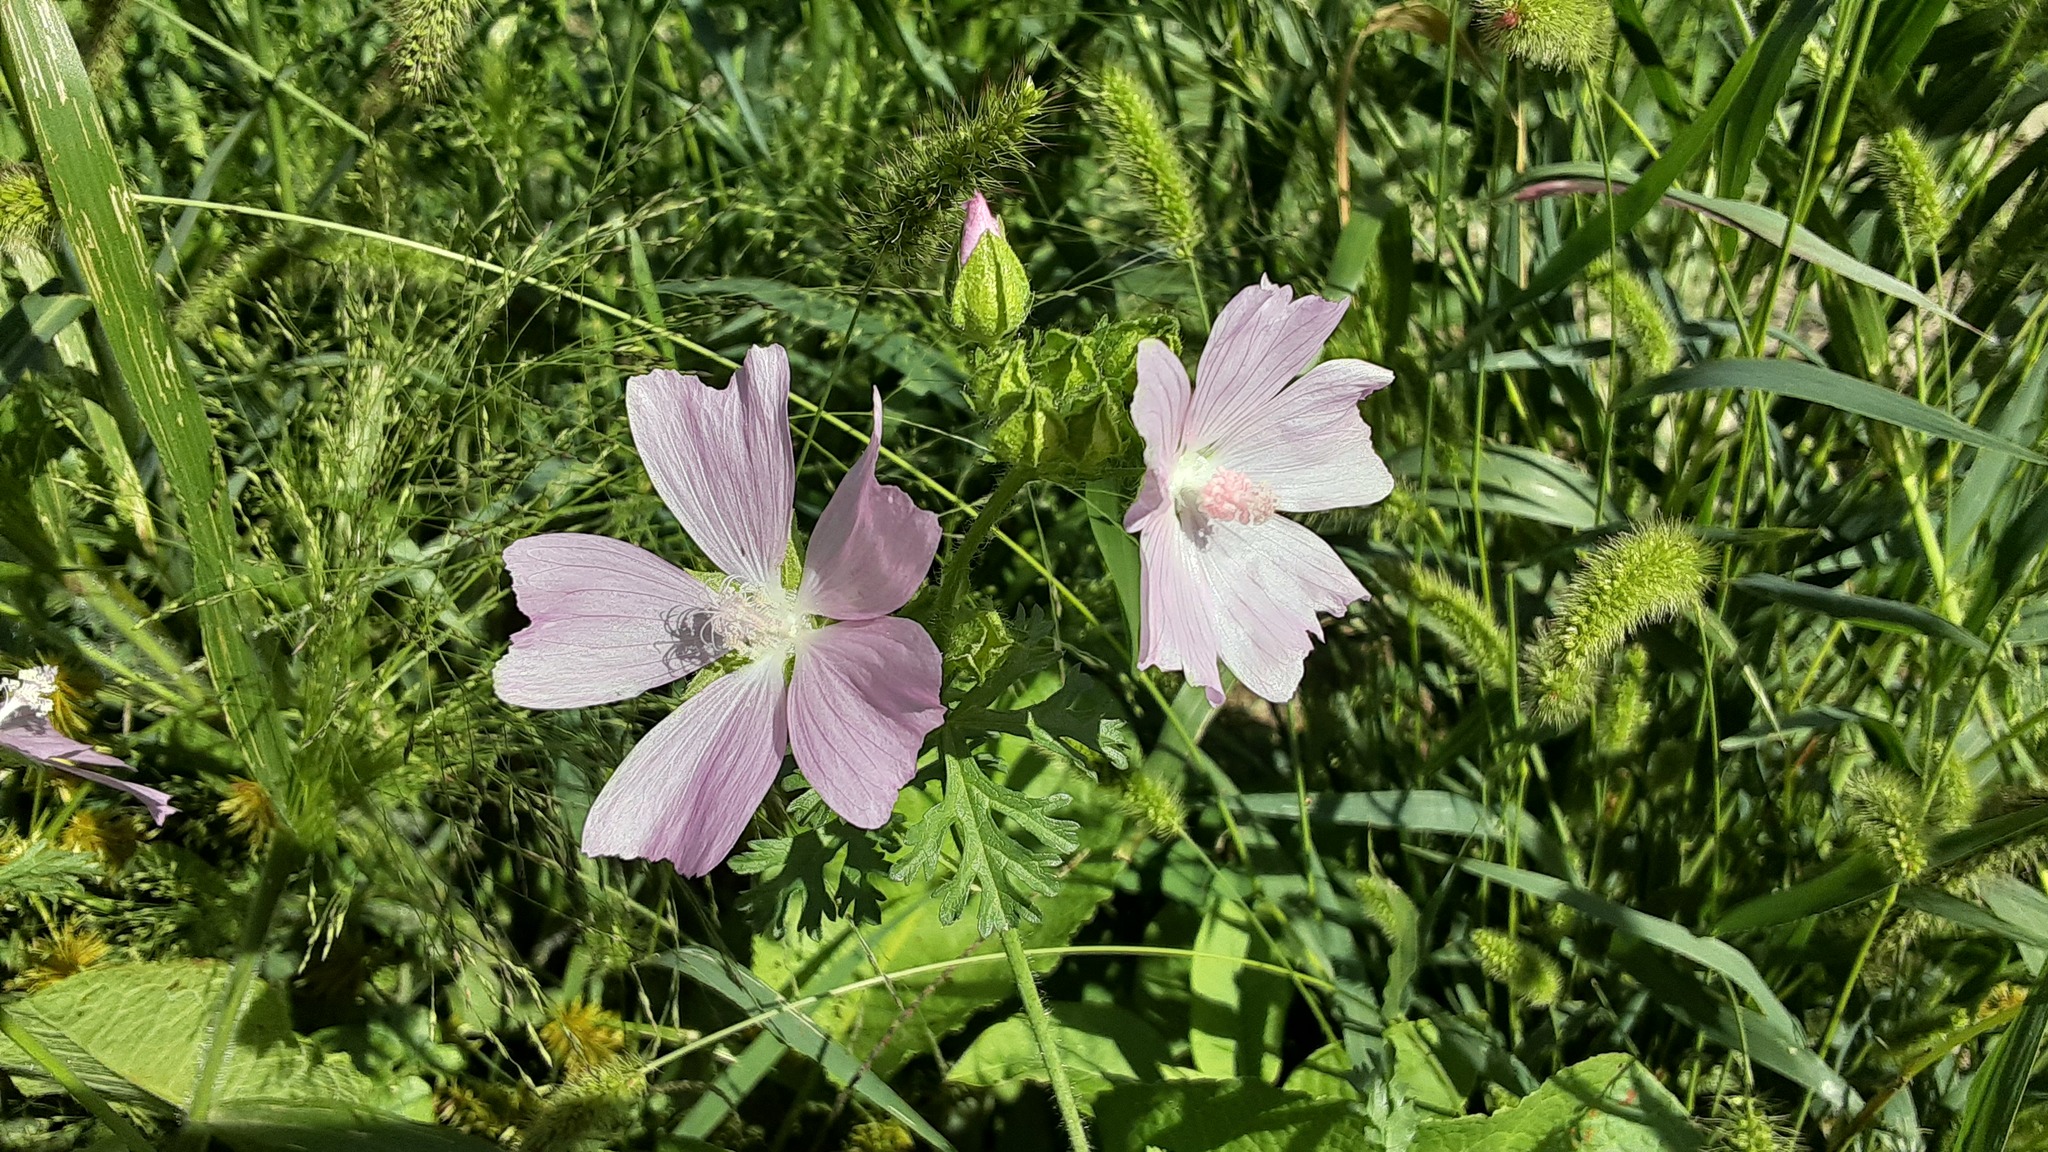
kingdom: Plantae
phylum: Tracheophyta
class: Magnoliopsida
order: Malvales
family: Malvaceae
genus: Malva
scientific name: Malva moschata
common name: Musk mallow
